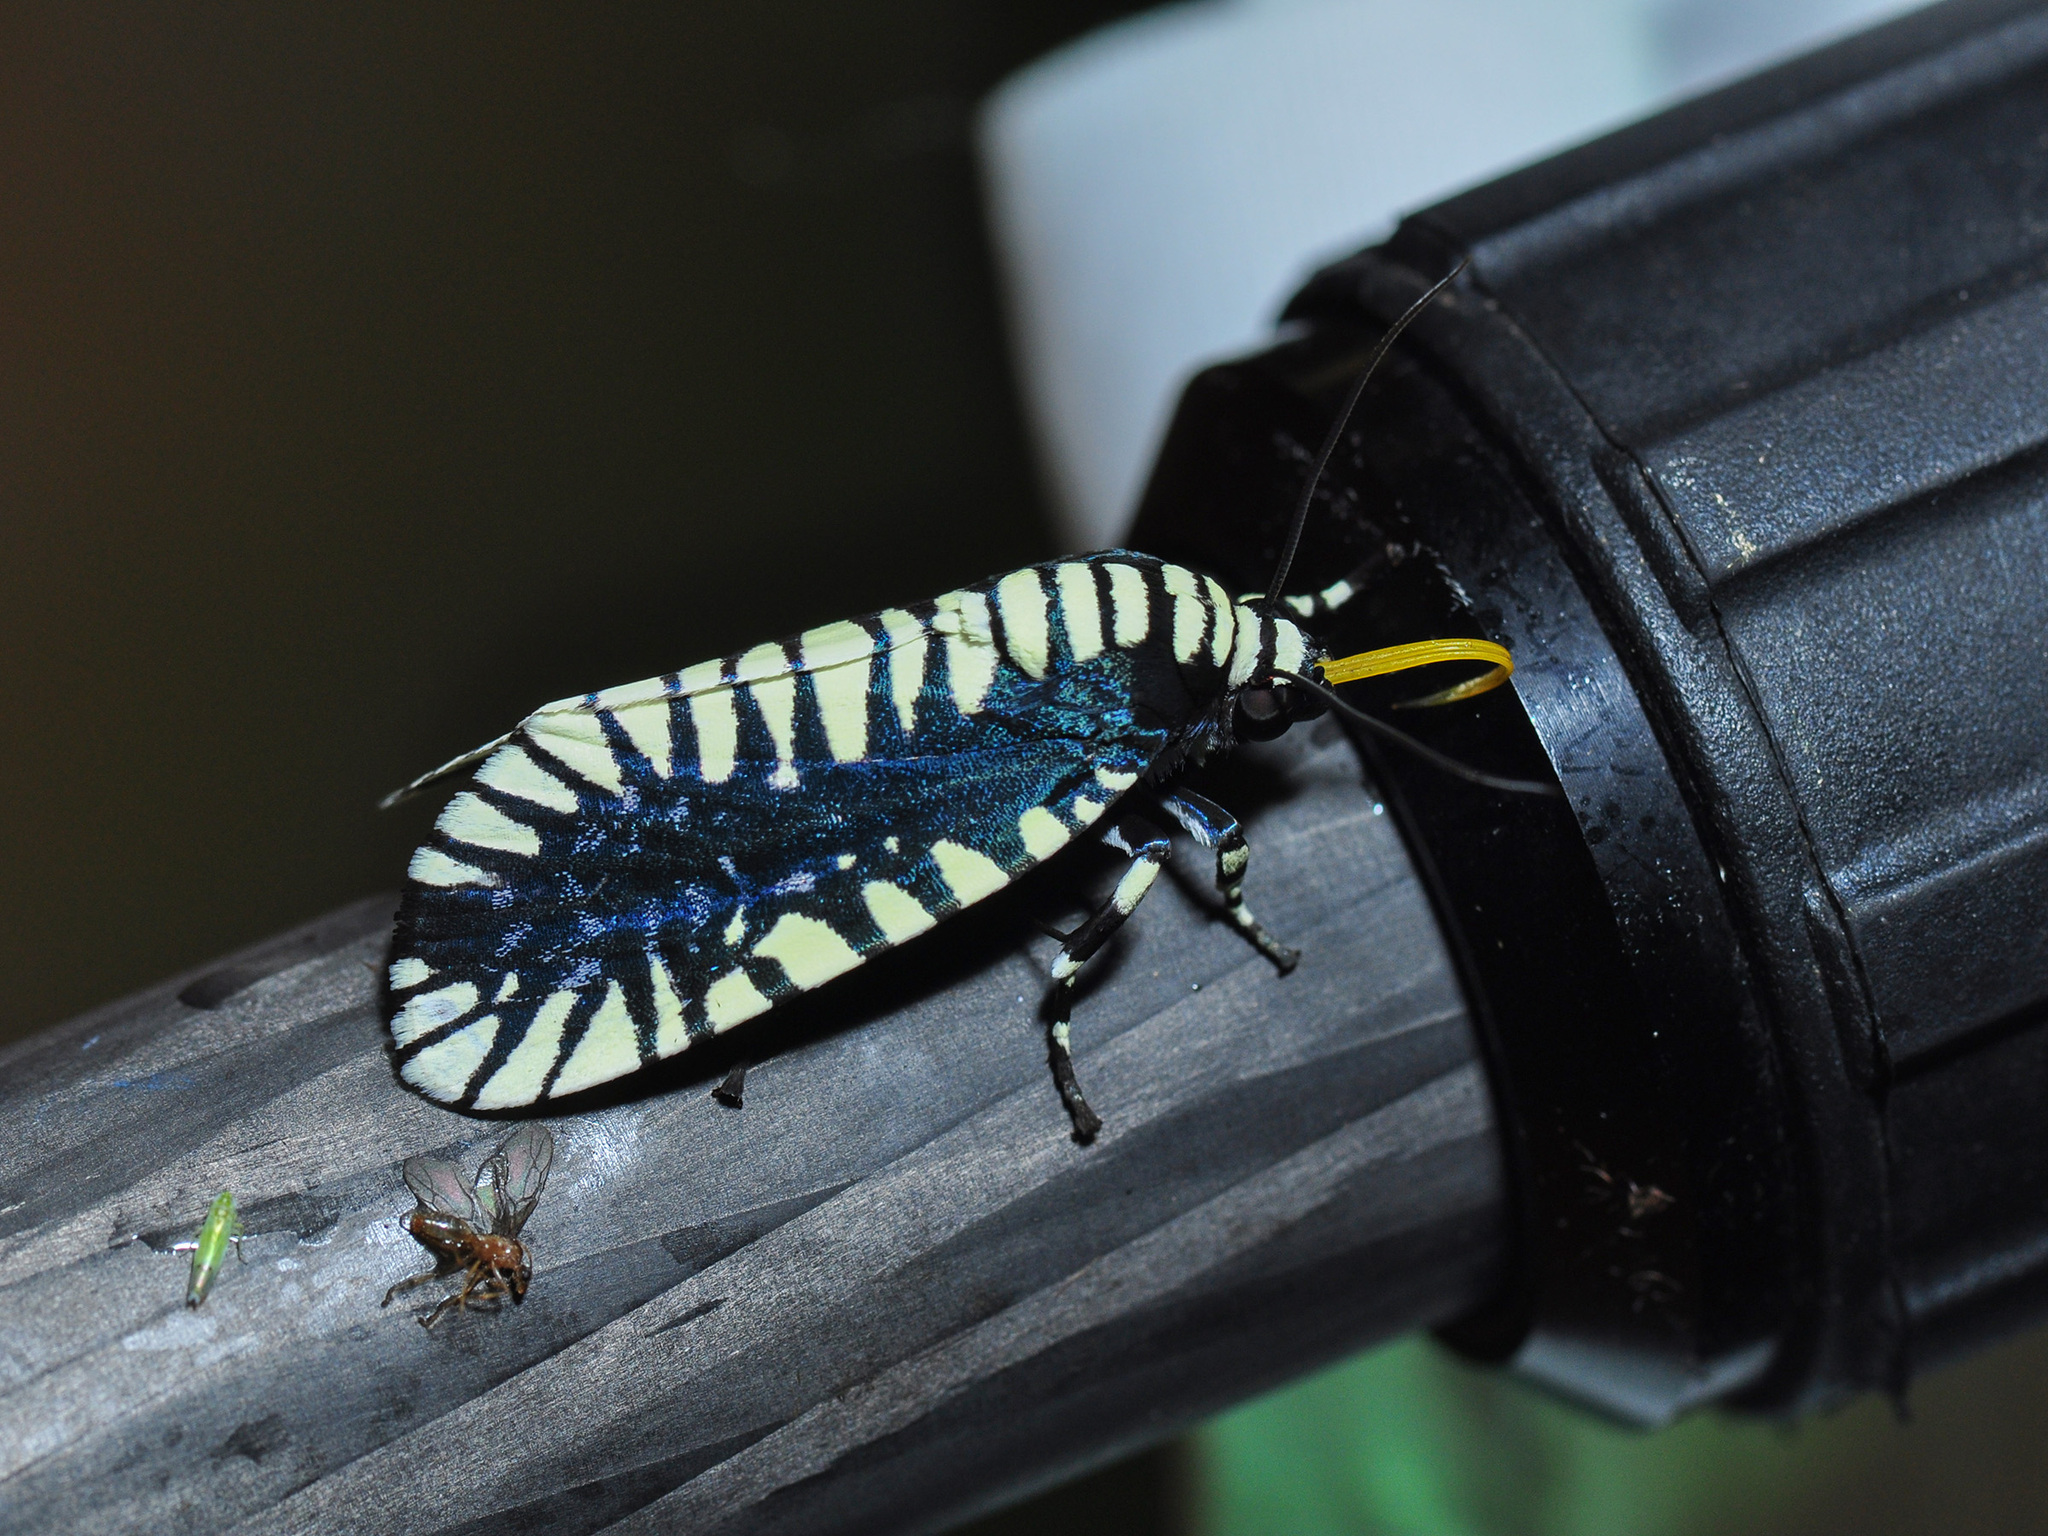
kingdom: Animalia
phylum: Arthropoda
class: Insecta
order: Lepidoptera
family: Noctuidae
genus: Apsarasa
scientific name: Apsarasa radians
